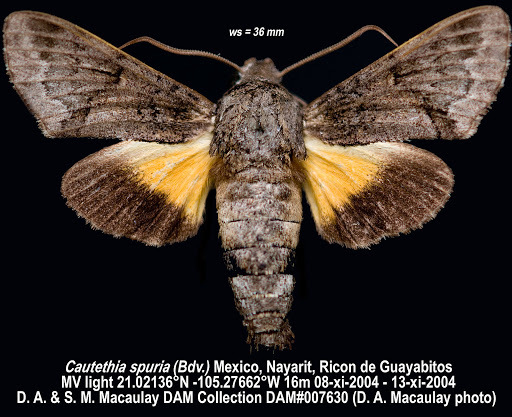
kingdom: Animalia
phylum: Arthropoda
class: Insecta
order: Lepidoptera
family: Sphingidae
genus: Cautethia
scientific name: Cautethia spuria
